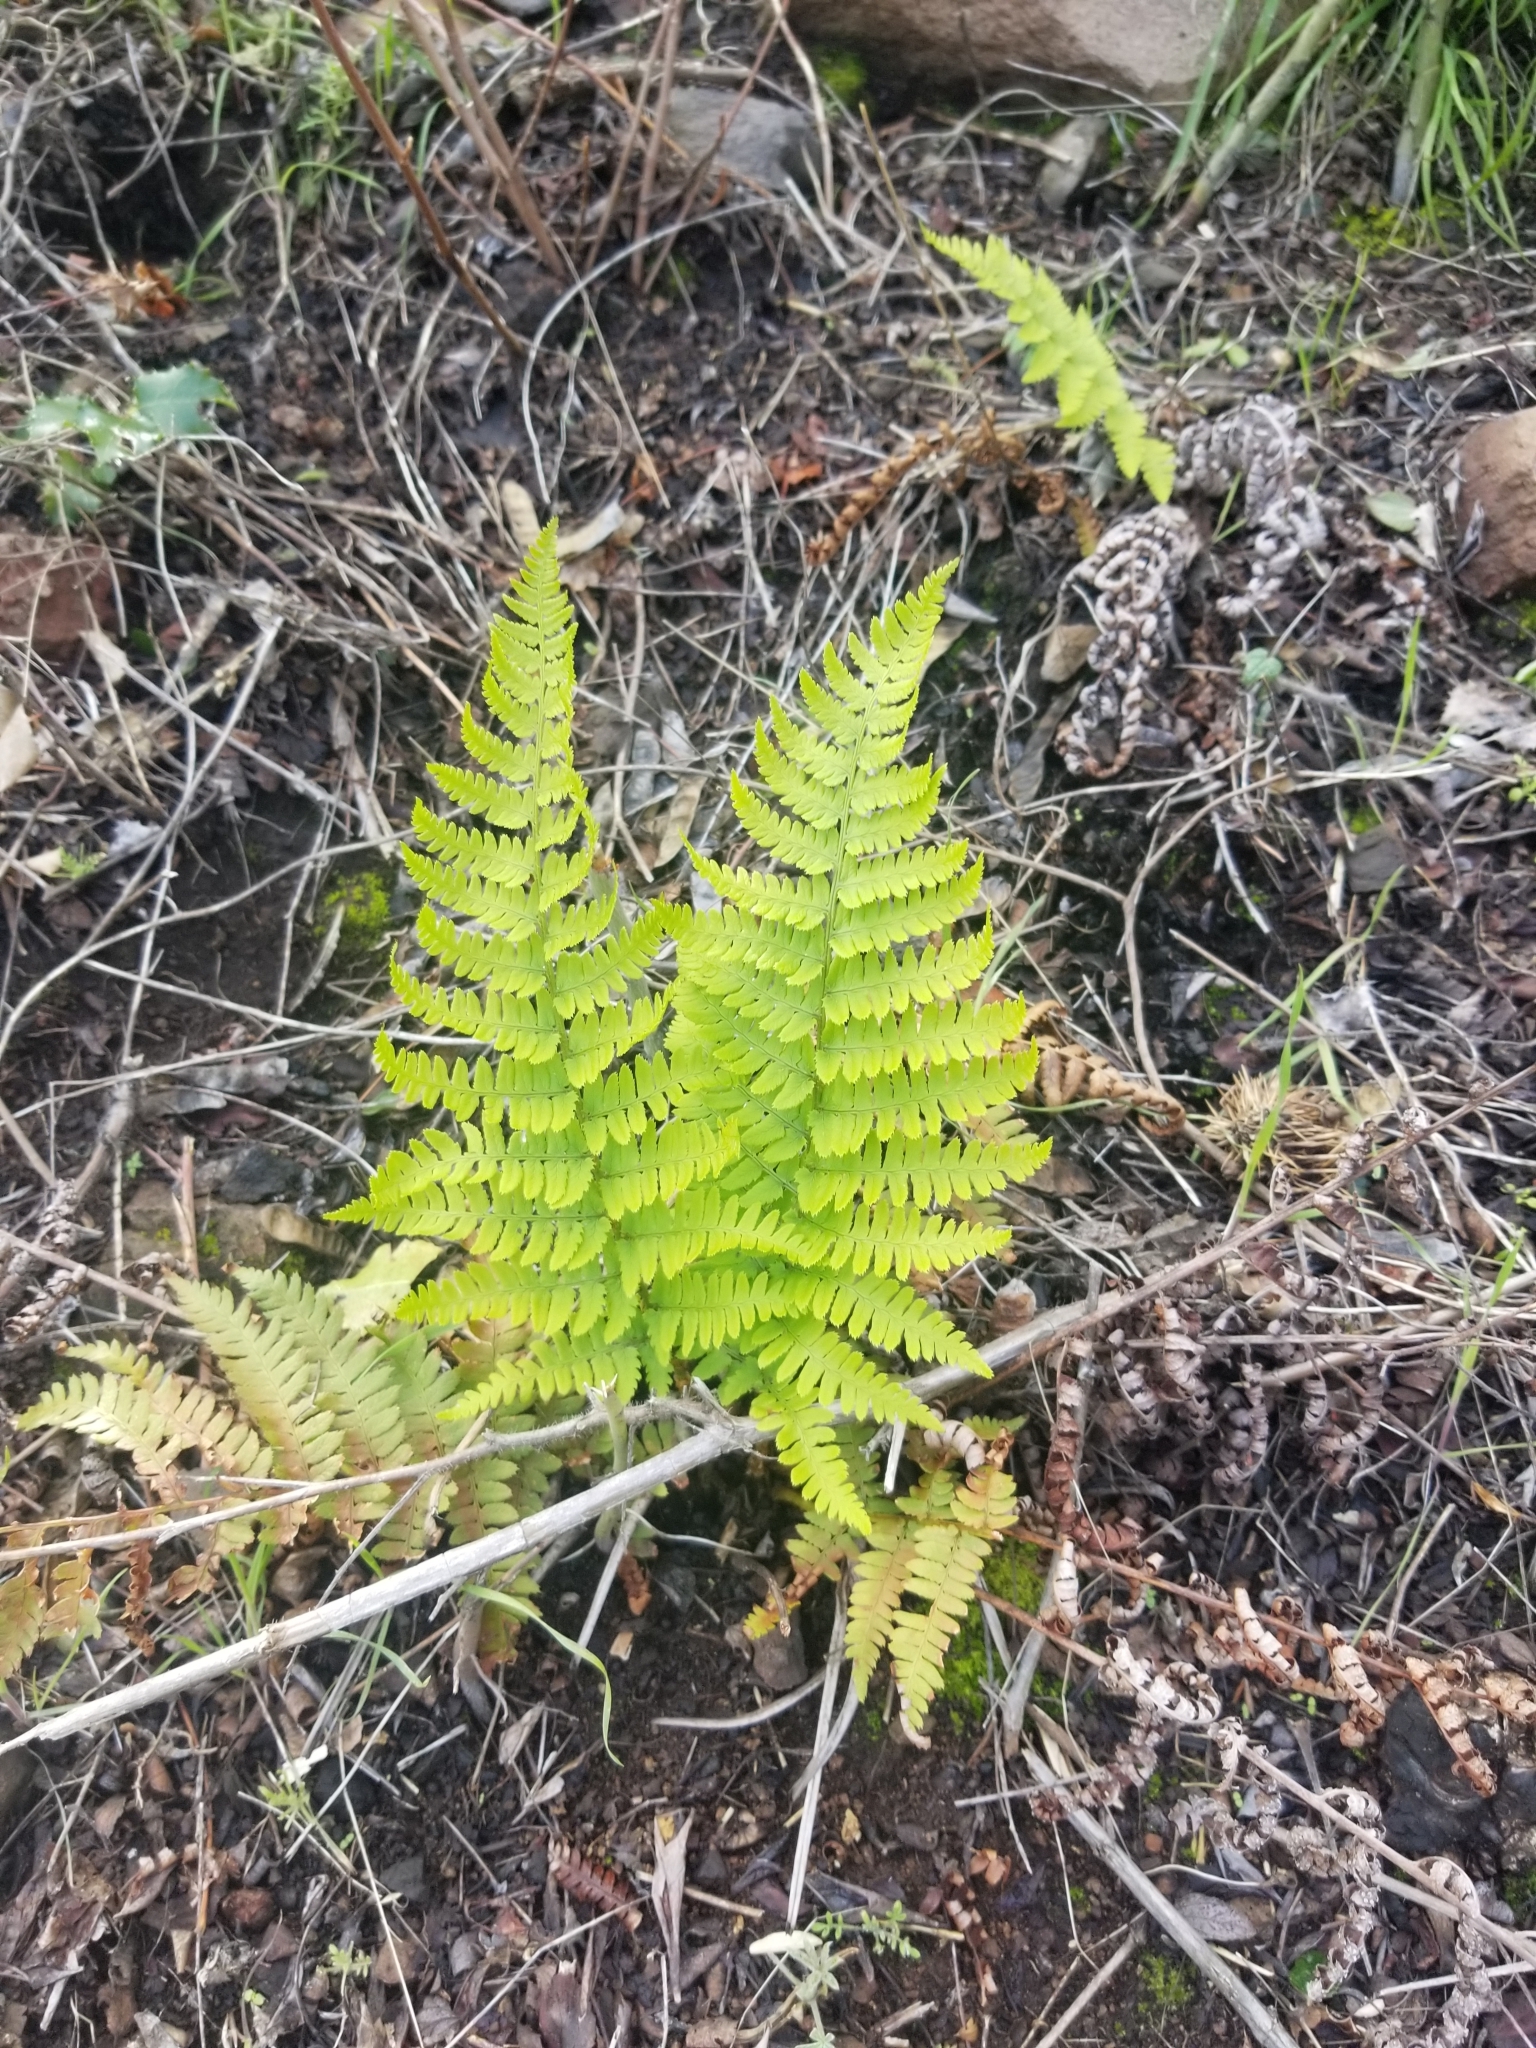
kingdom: Plantae
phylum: Tracheophyta
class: Polypodiopsida
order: Polypodiales
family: Dryopteridaceae
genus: Dryopteris
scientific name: Dryopteris arguta
